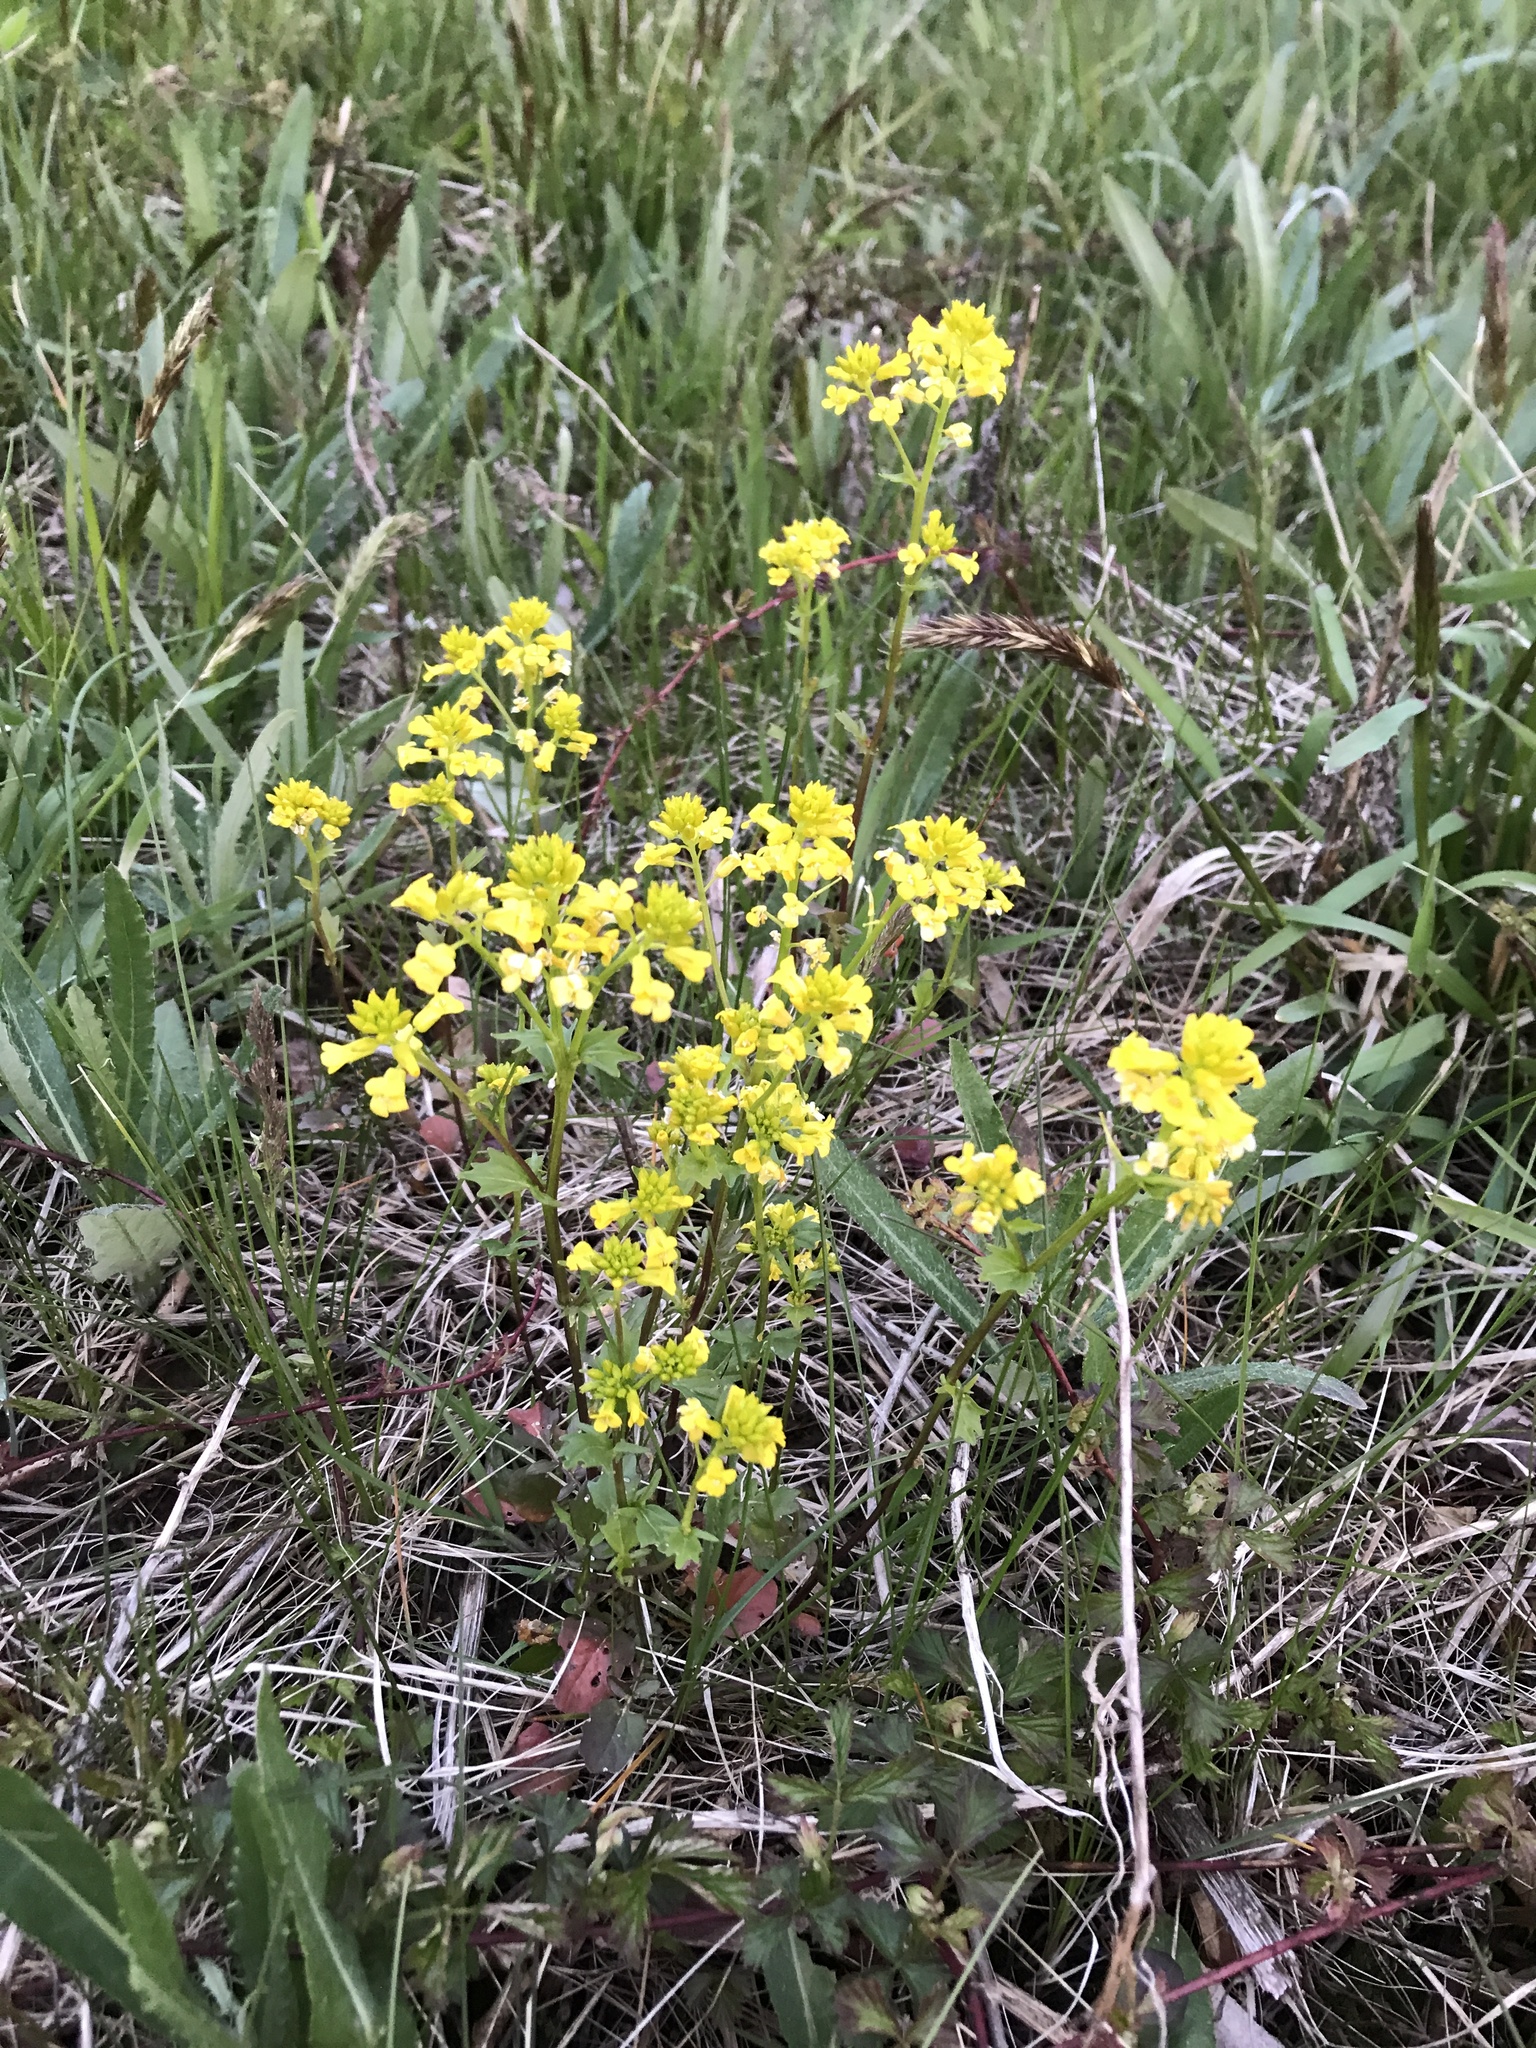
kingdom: Plantae
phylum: Tracheophyta
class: Magnoliopsida
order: Brassicales
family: Brassicaceae
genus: Barbarea
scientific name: Barbarea vulgaris
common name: Cressy-greens
